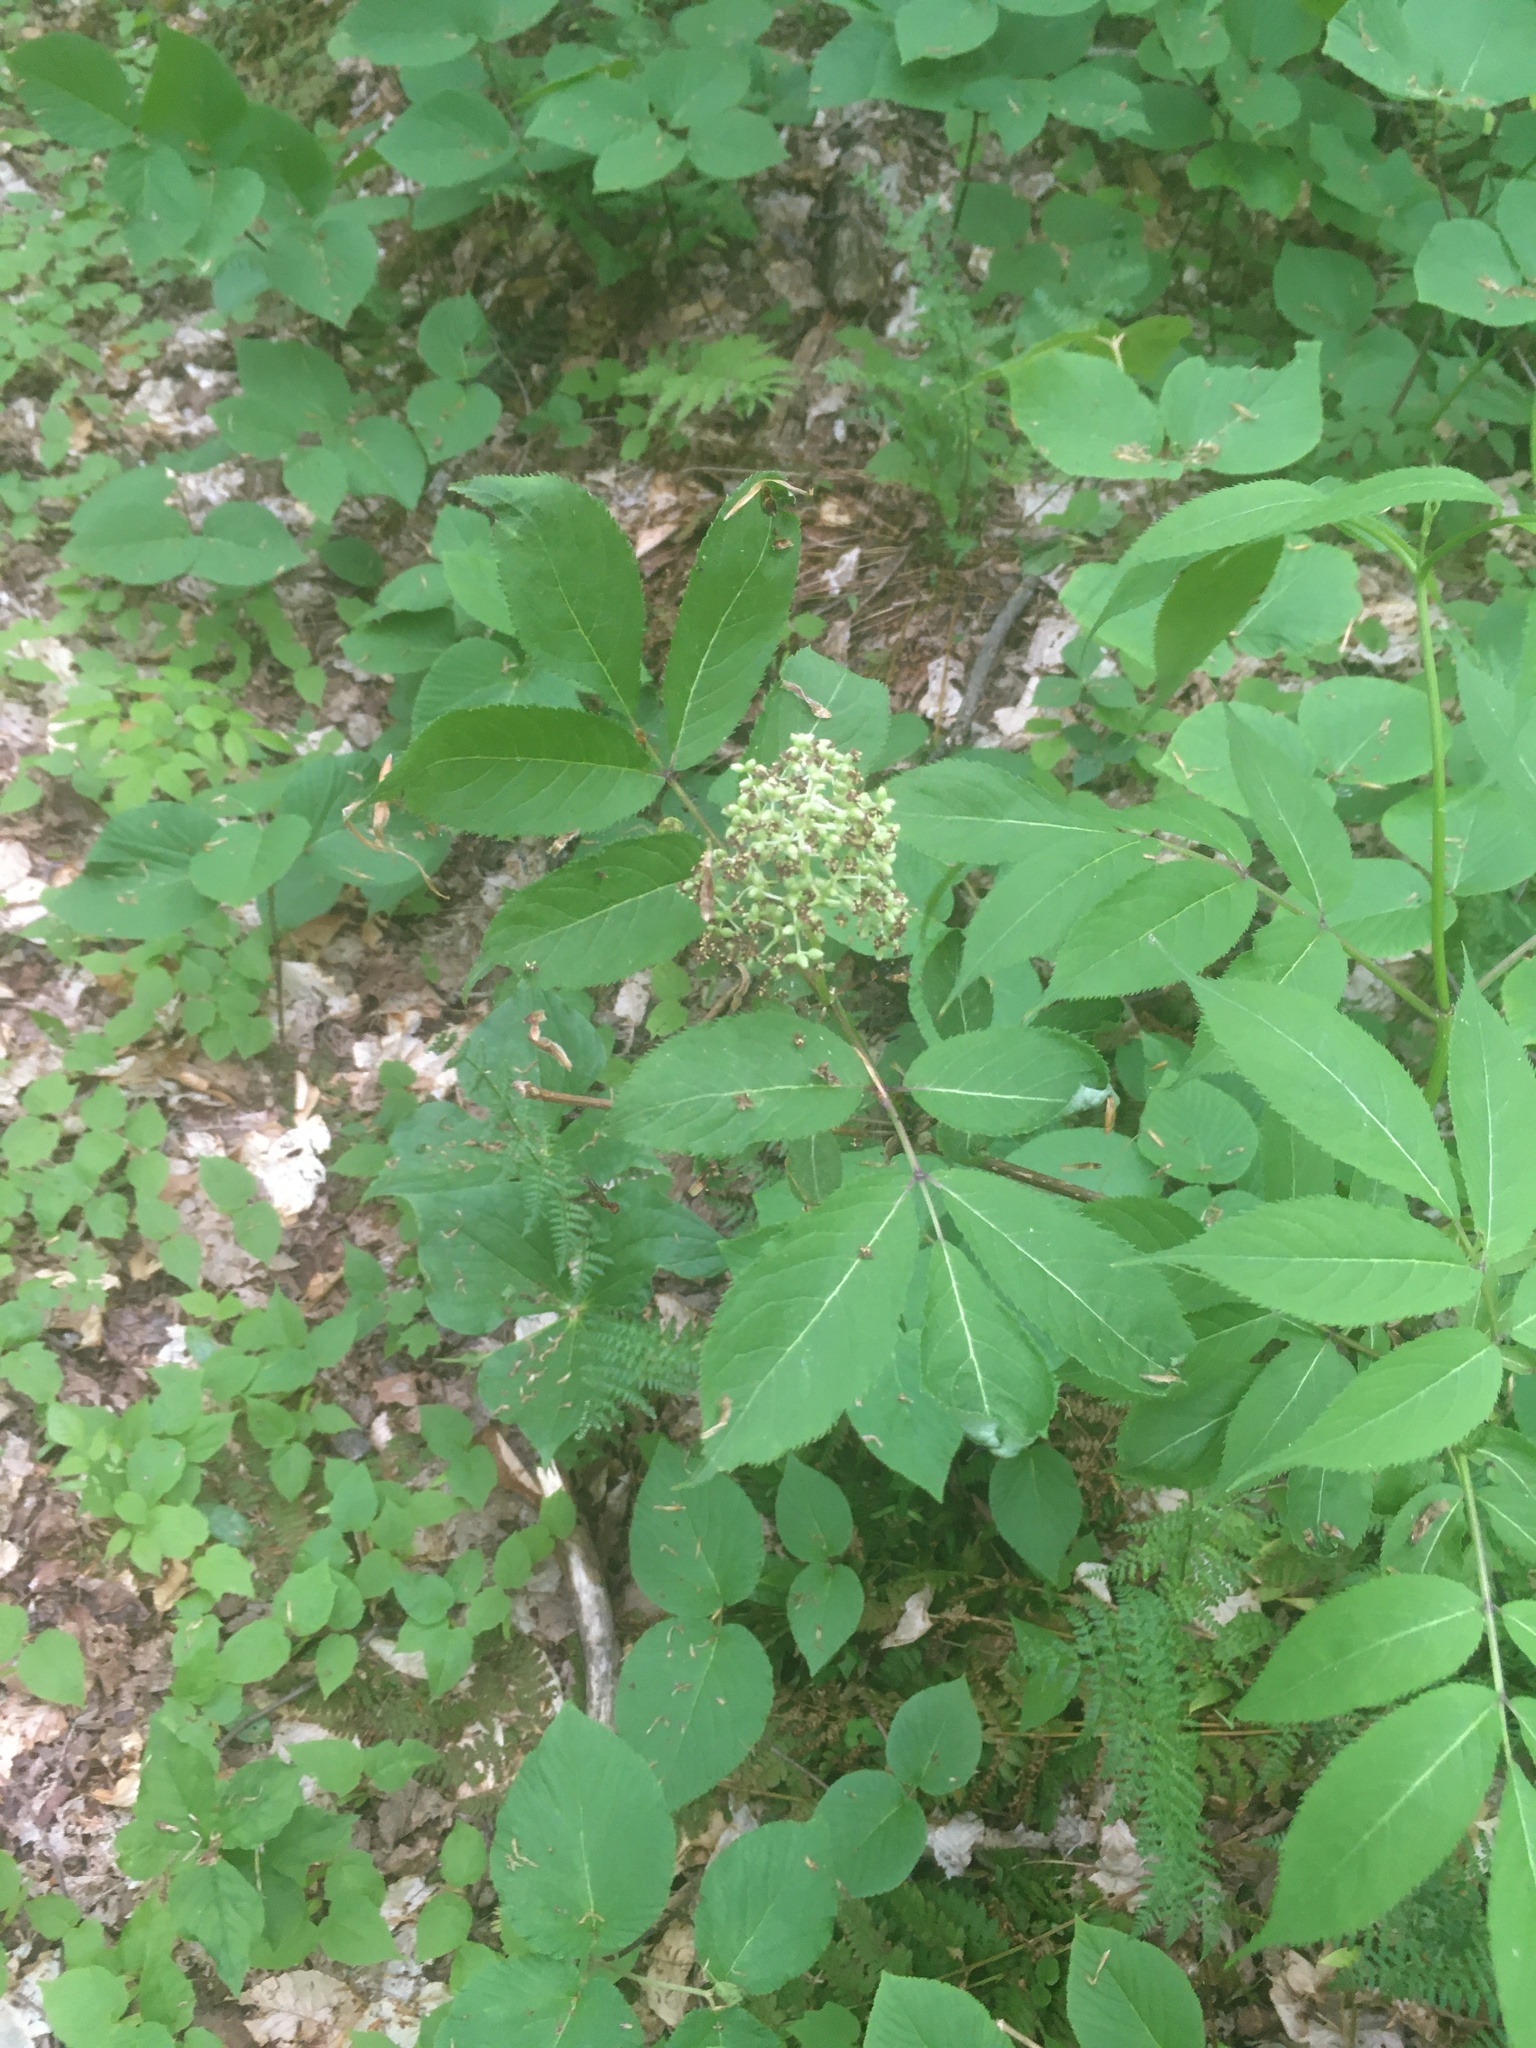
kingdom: Plantae
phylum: Tracheophyta
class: Magnoliopsida
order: Dipsacales
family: Viburnaceae
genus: Sambucus
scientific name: Sambucus racemosa
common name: Red-berried elder
